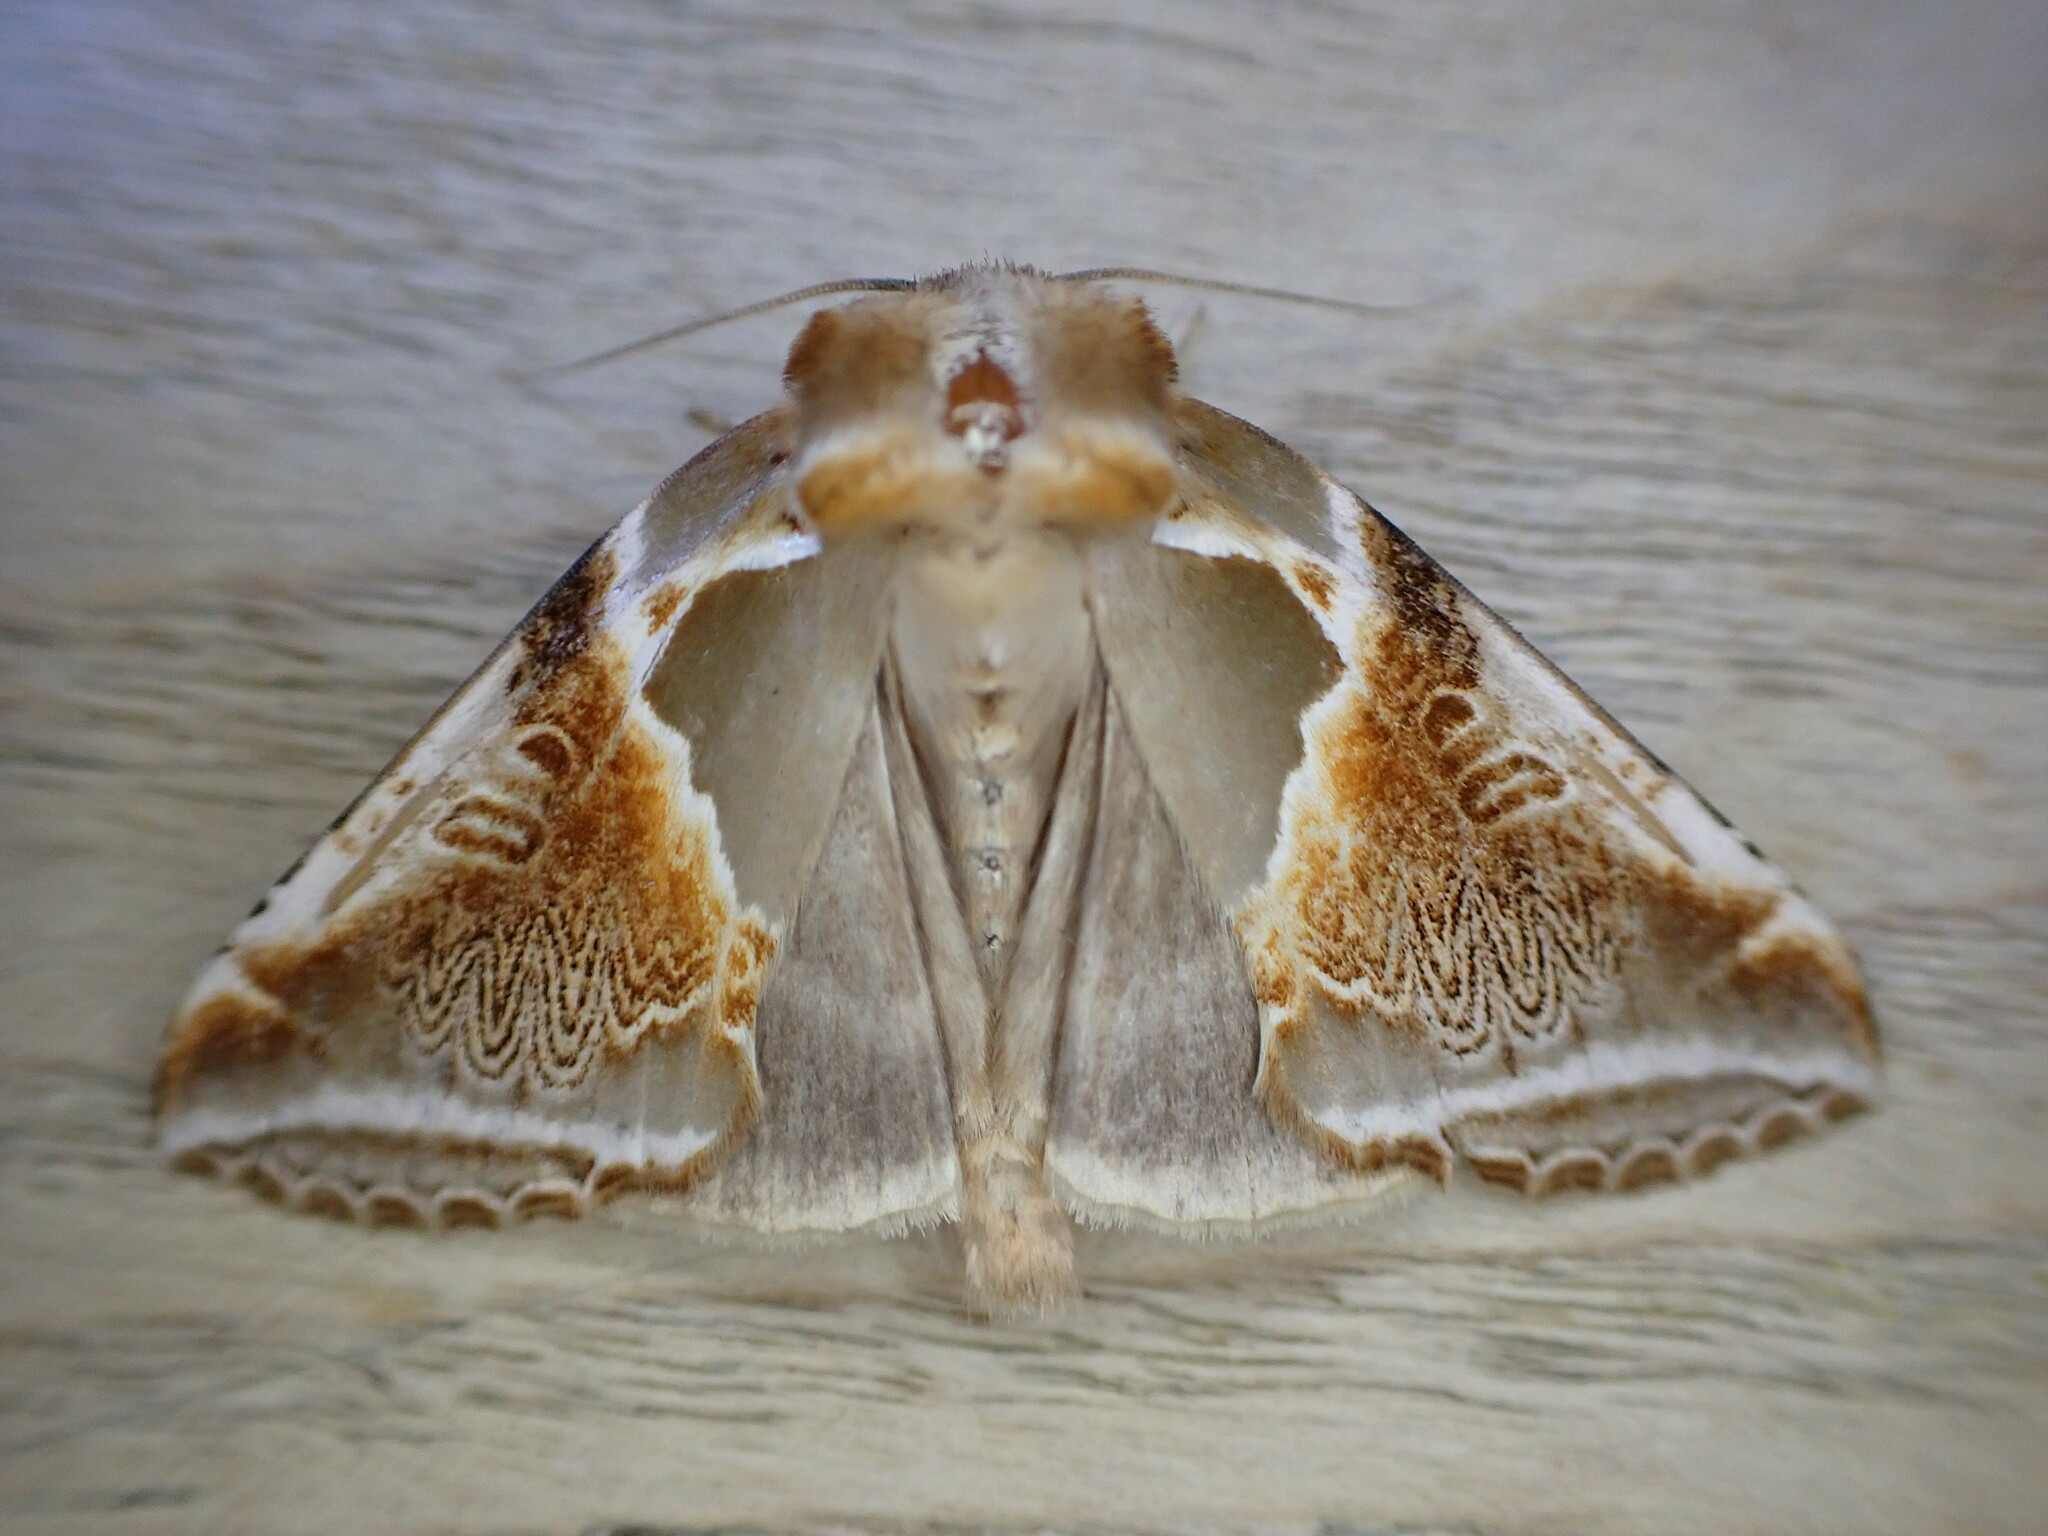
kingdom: Animalia
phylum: Arthropoda
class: Insecta
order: Lepidoptera
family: Drepanidae
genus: Habrosyne
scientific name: Habrosyne pyritoides
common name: Buff arches
